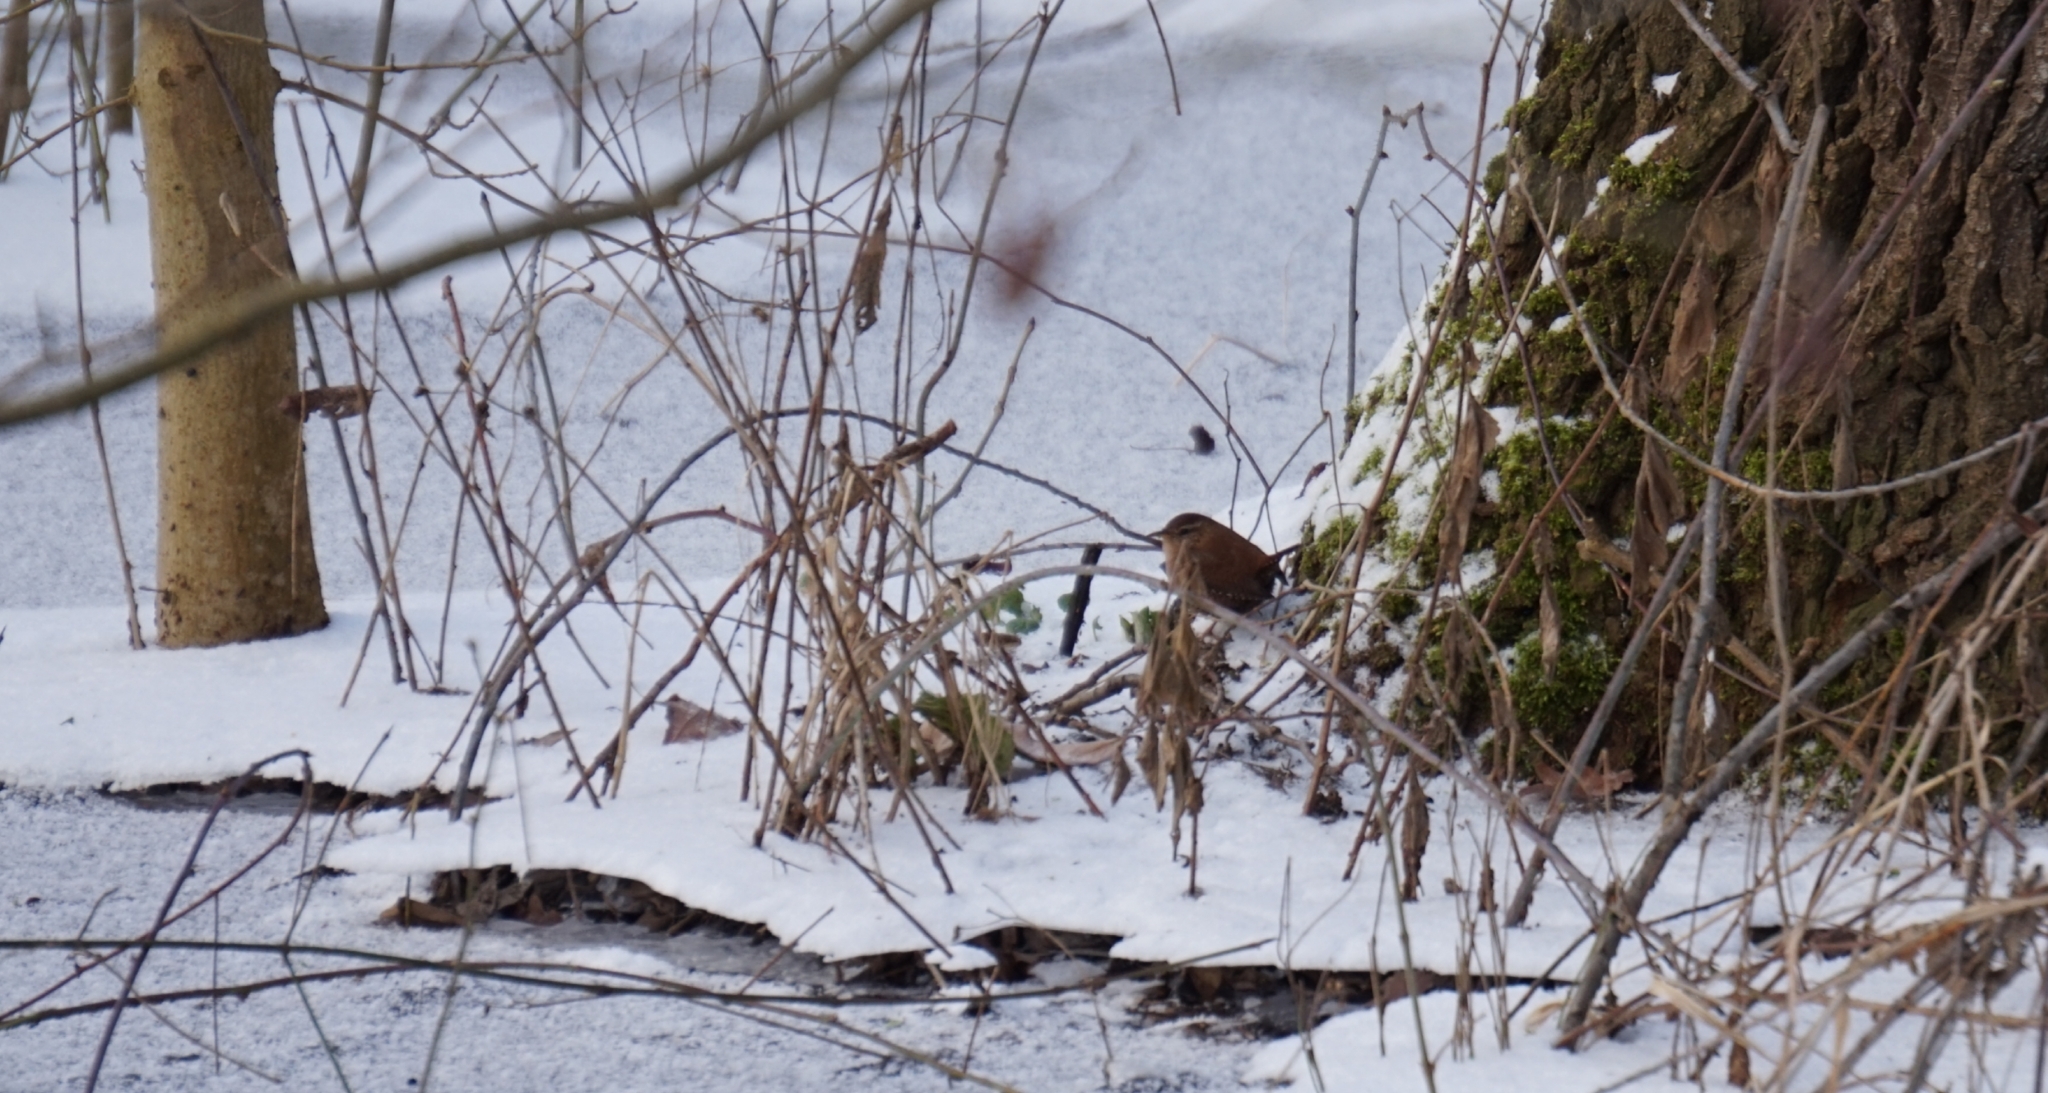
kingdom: Animalia
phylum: Chordata
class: Aves
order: Passeriformes
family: Troglodytidae
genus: Troglodytes
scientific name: Troglodytes troglodytes
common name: Eurasian wren
